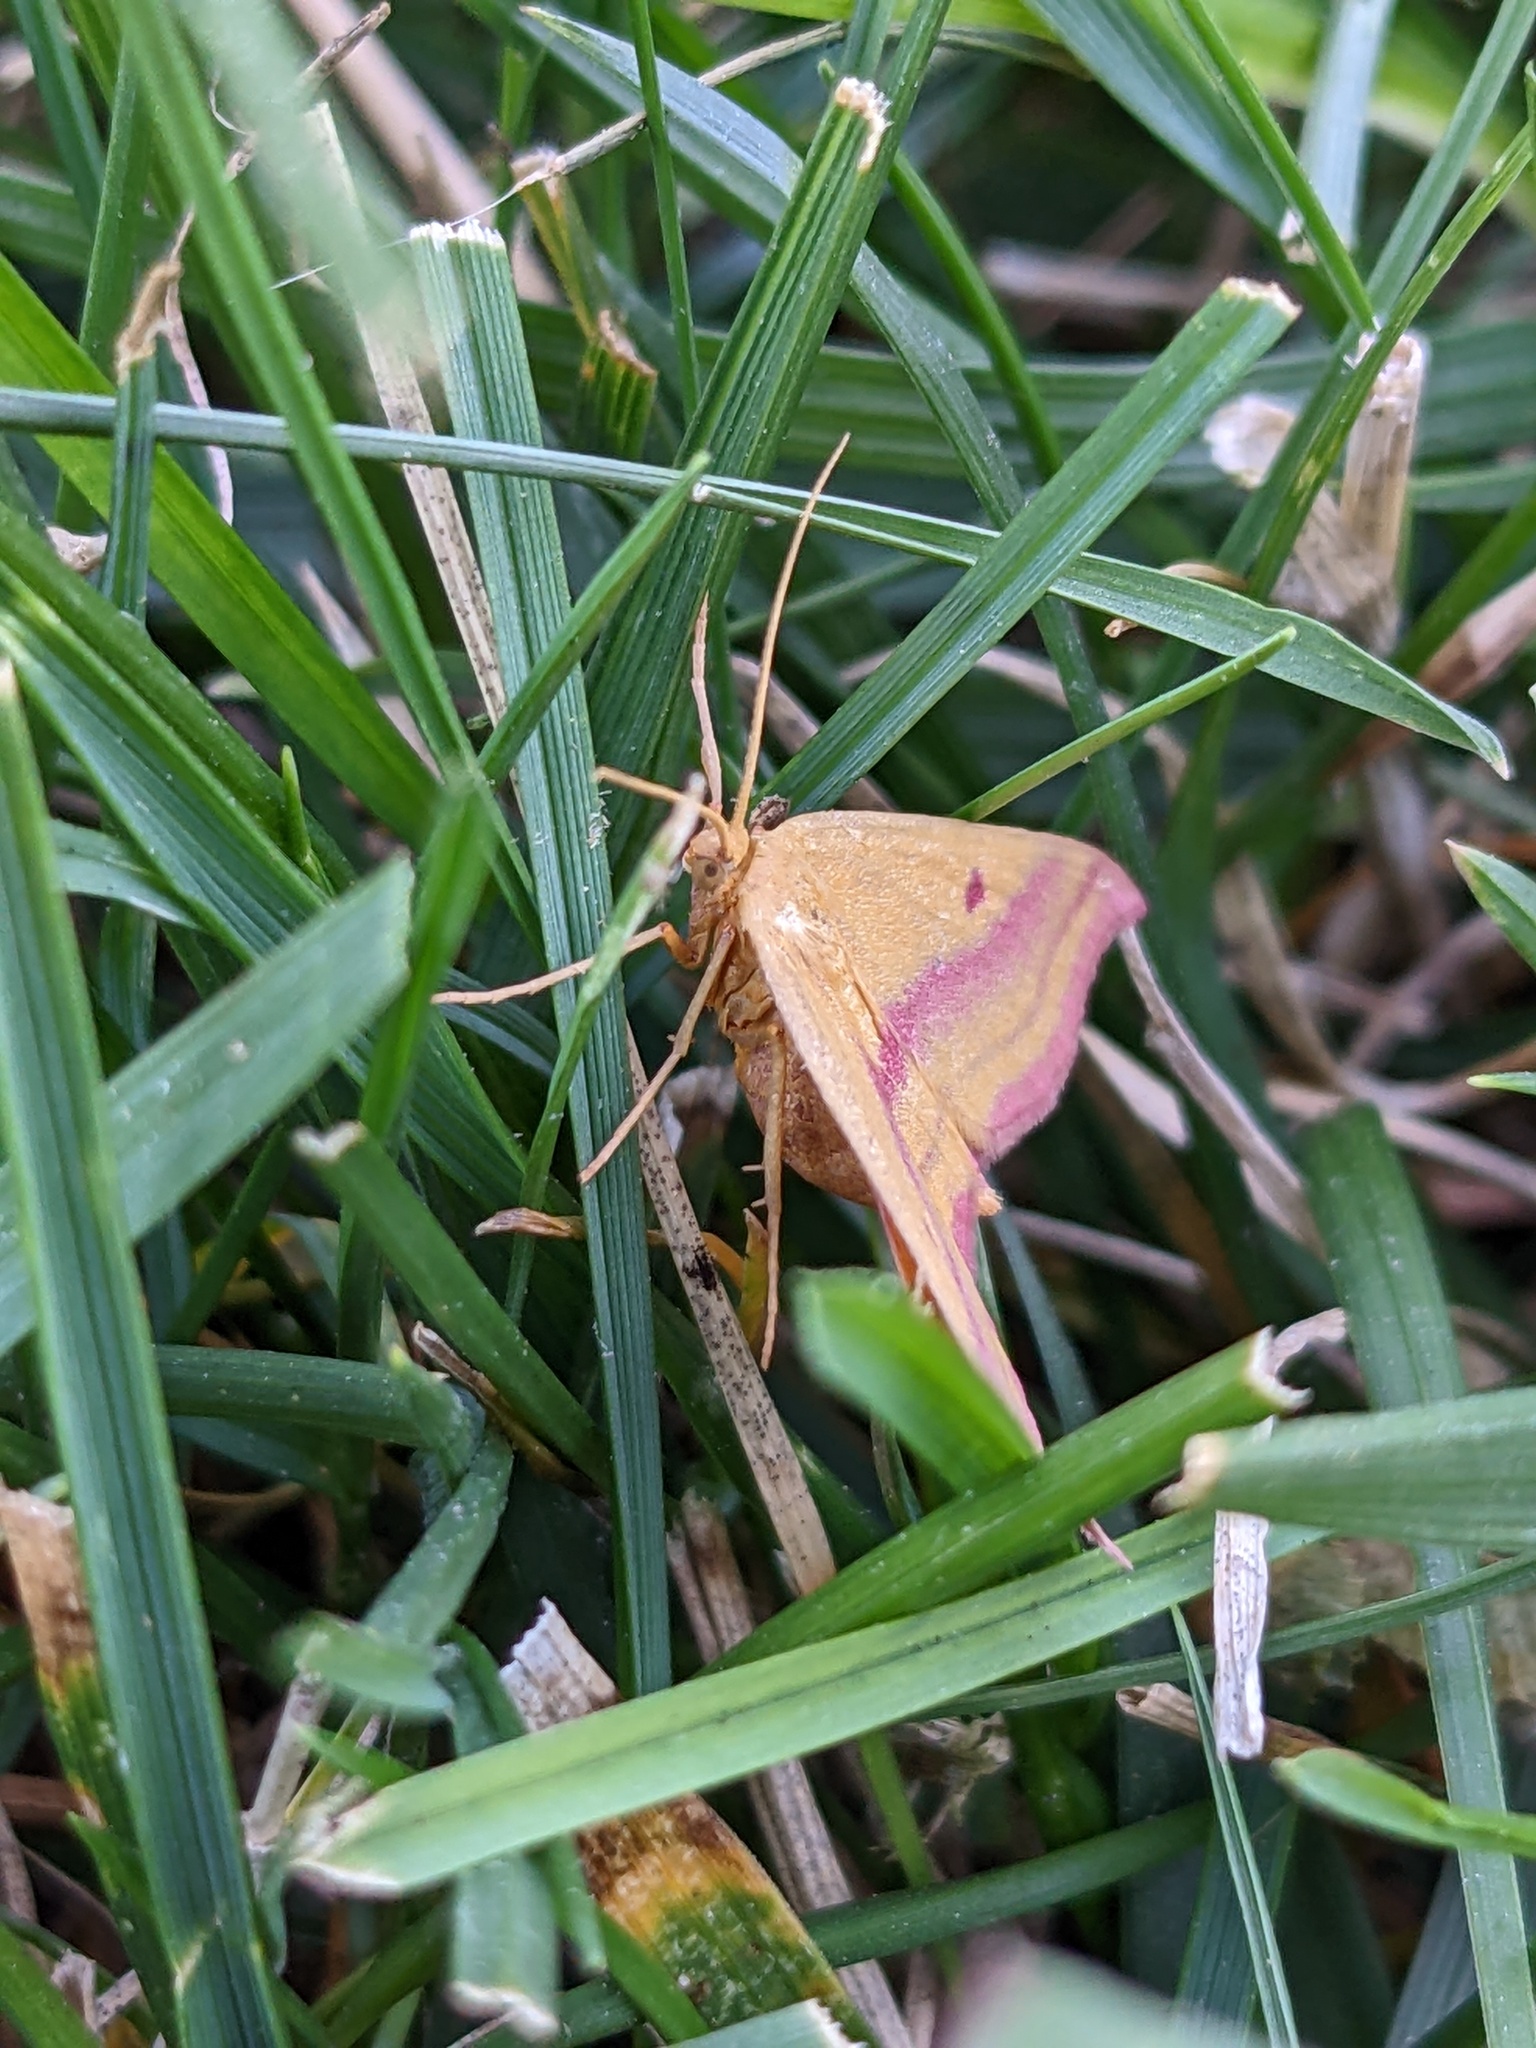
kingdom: Animalia
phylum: Arthropoda
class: Insecta
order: Lepidoptera
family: Geometridae
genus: Haematopis
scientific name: Haematopis grataria
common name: Chickweed geometer
